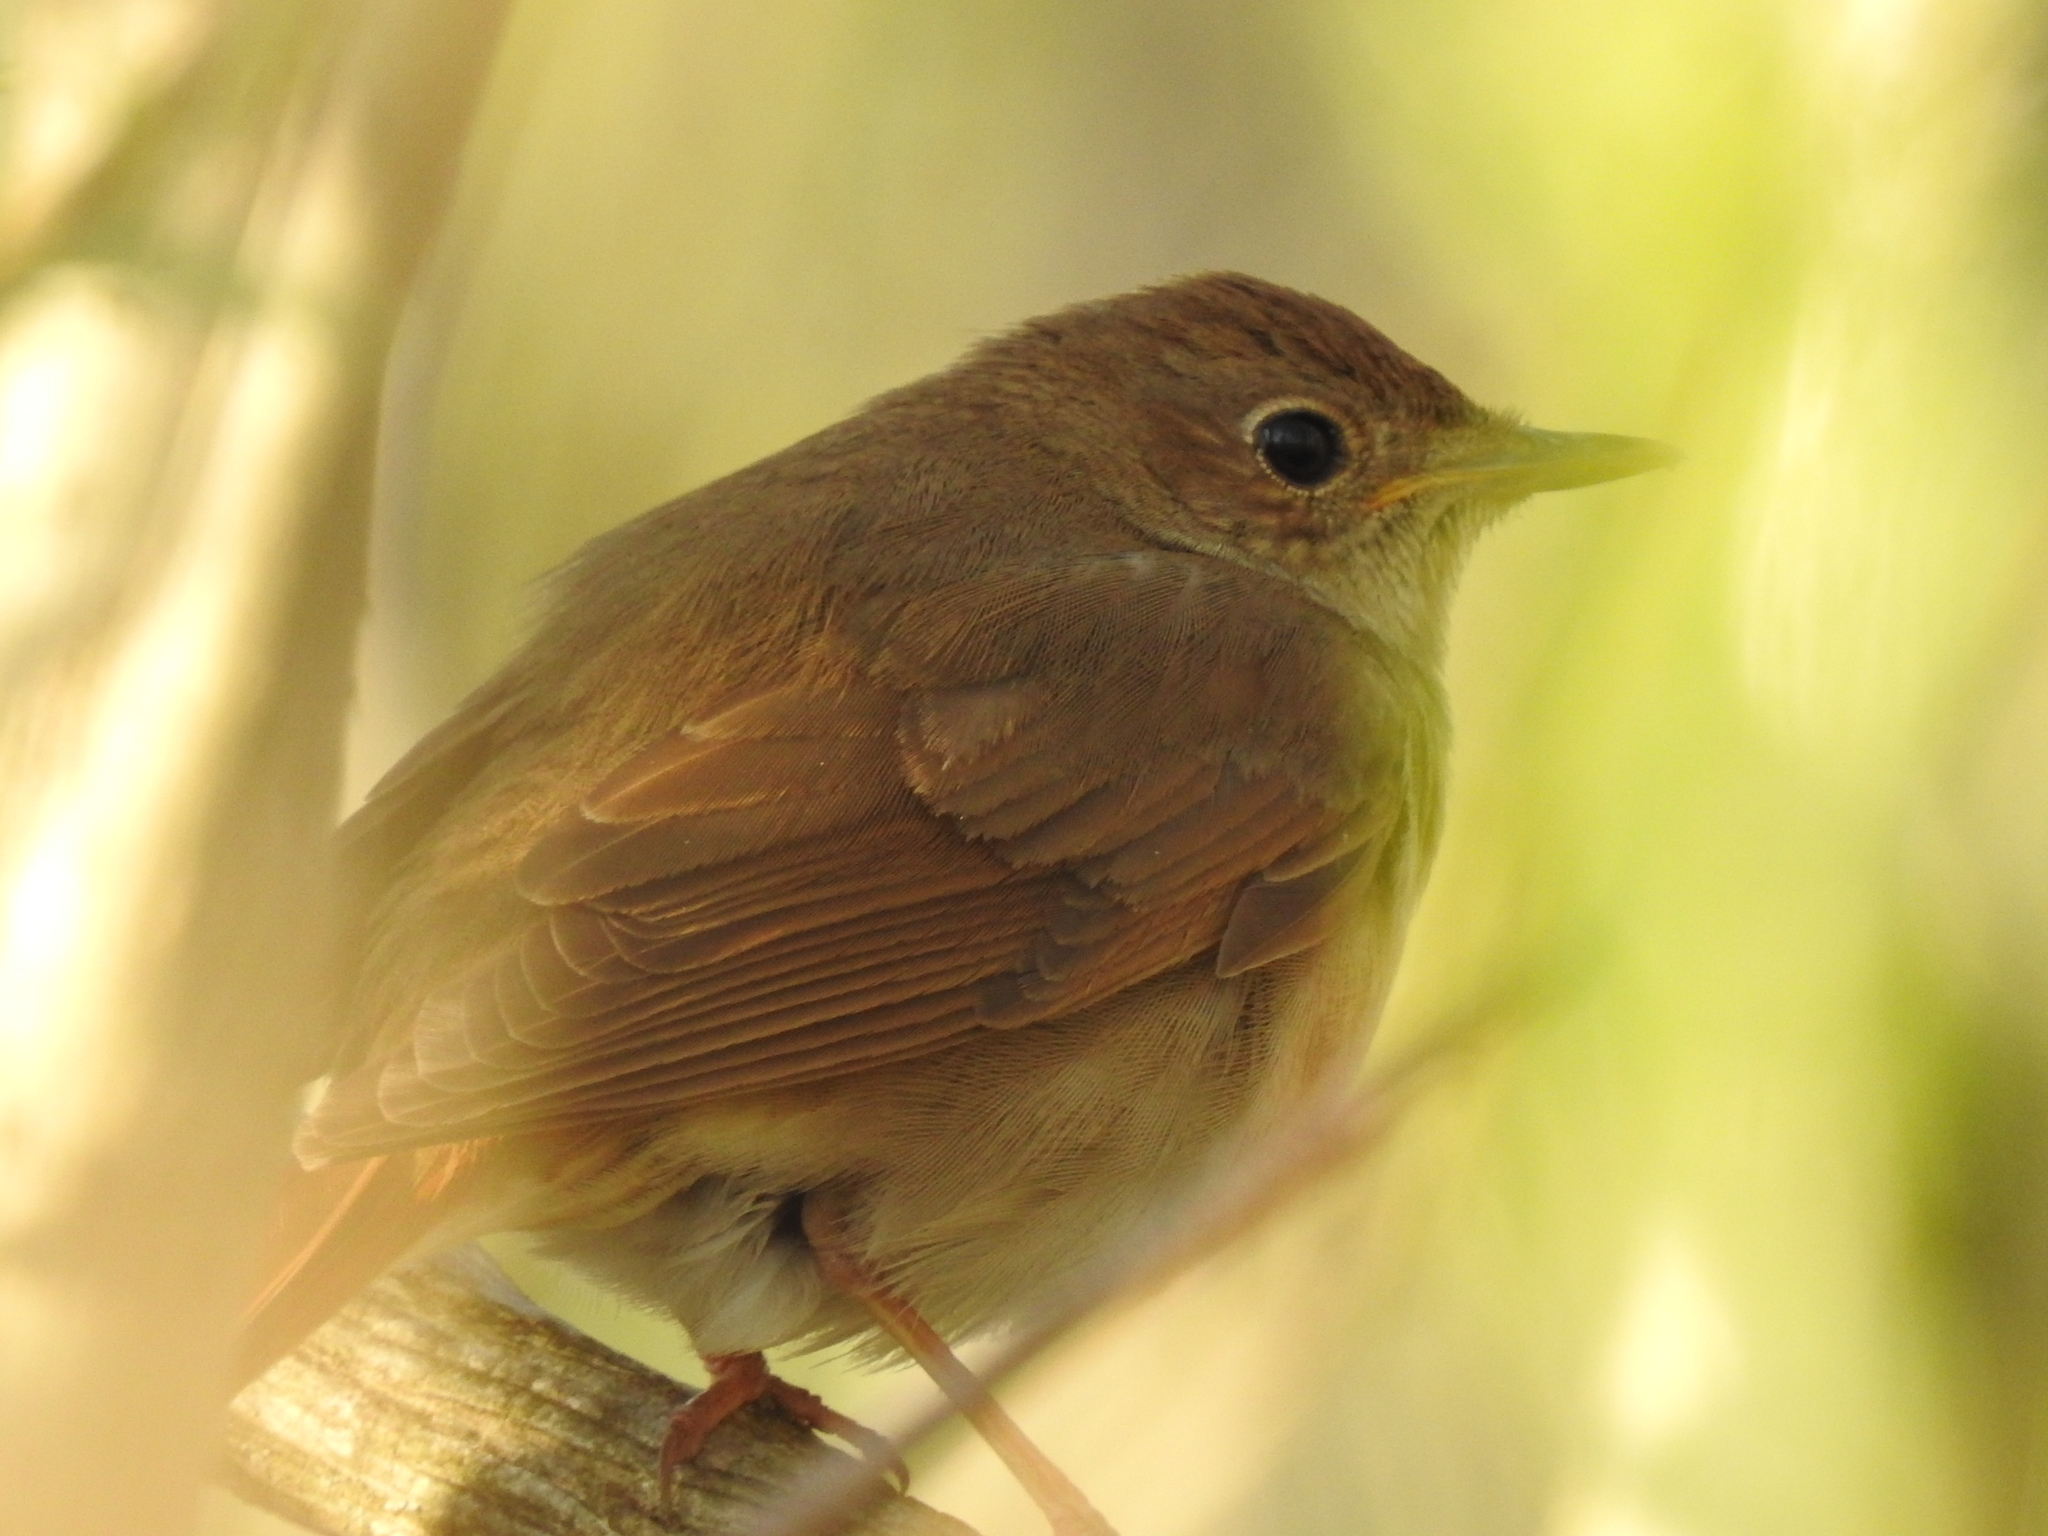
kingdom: Animalia
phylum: Chordata
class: Aves
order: Passeriformes
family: Muscicapidae
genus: Luscinia
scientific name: Luscinia luscinia
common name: Thrush nightingale
